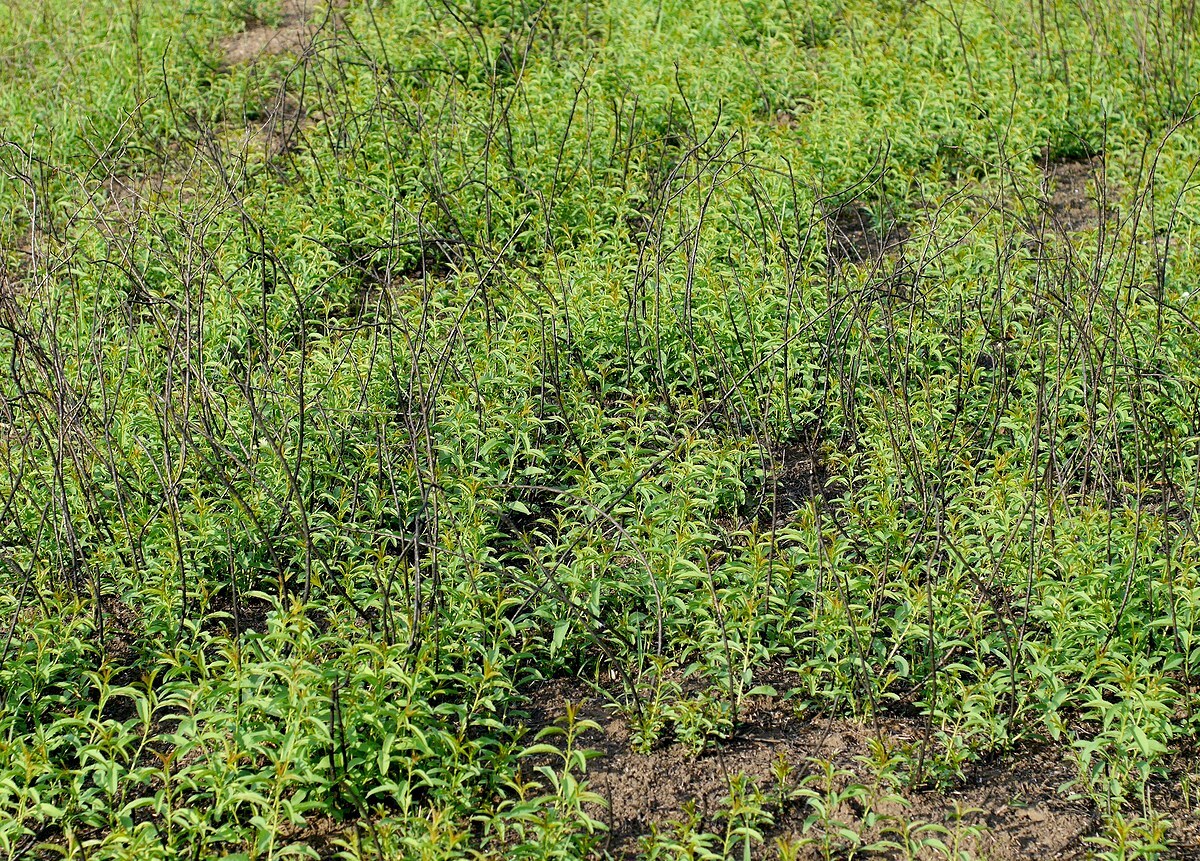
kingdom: Plantae
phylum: Tracheophyta
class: Magnoliopsida
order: Rosales
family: Rosaceae
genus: Prunus
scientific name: Prunus tenella
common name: Dwarf russian almond
